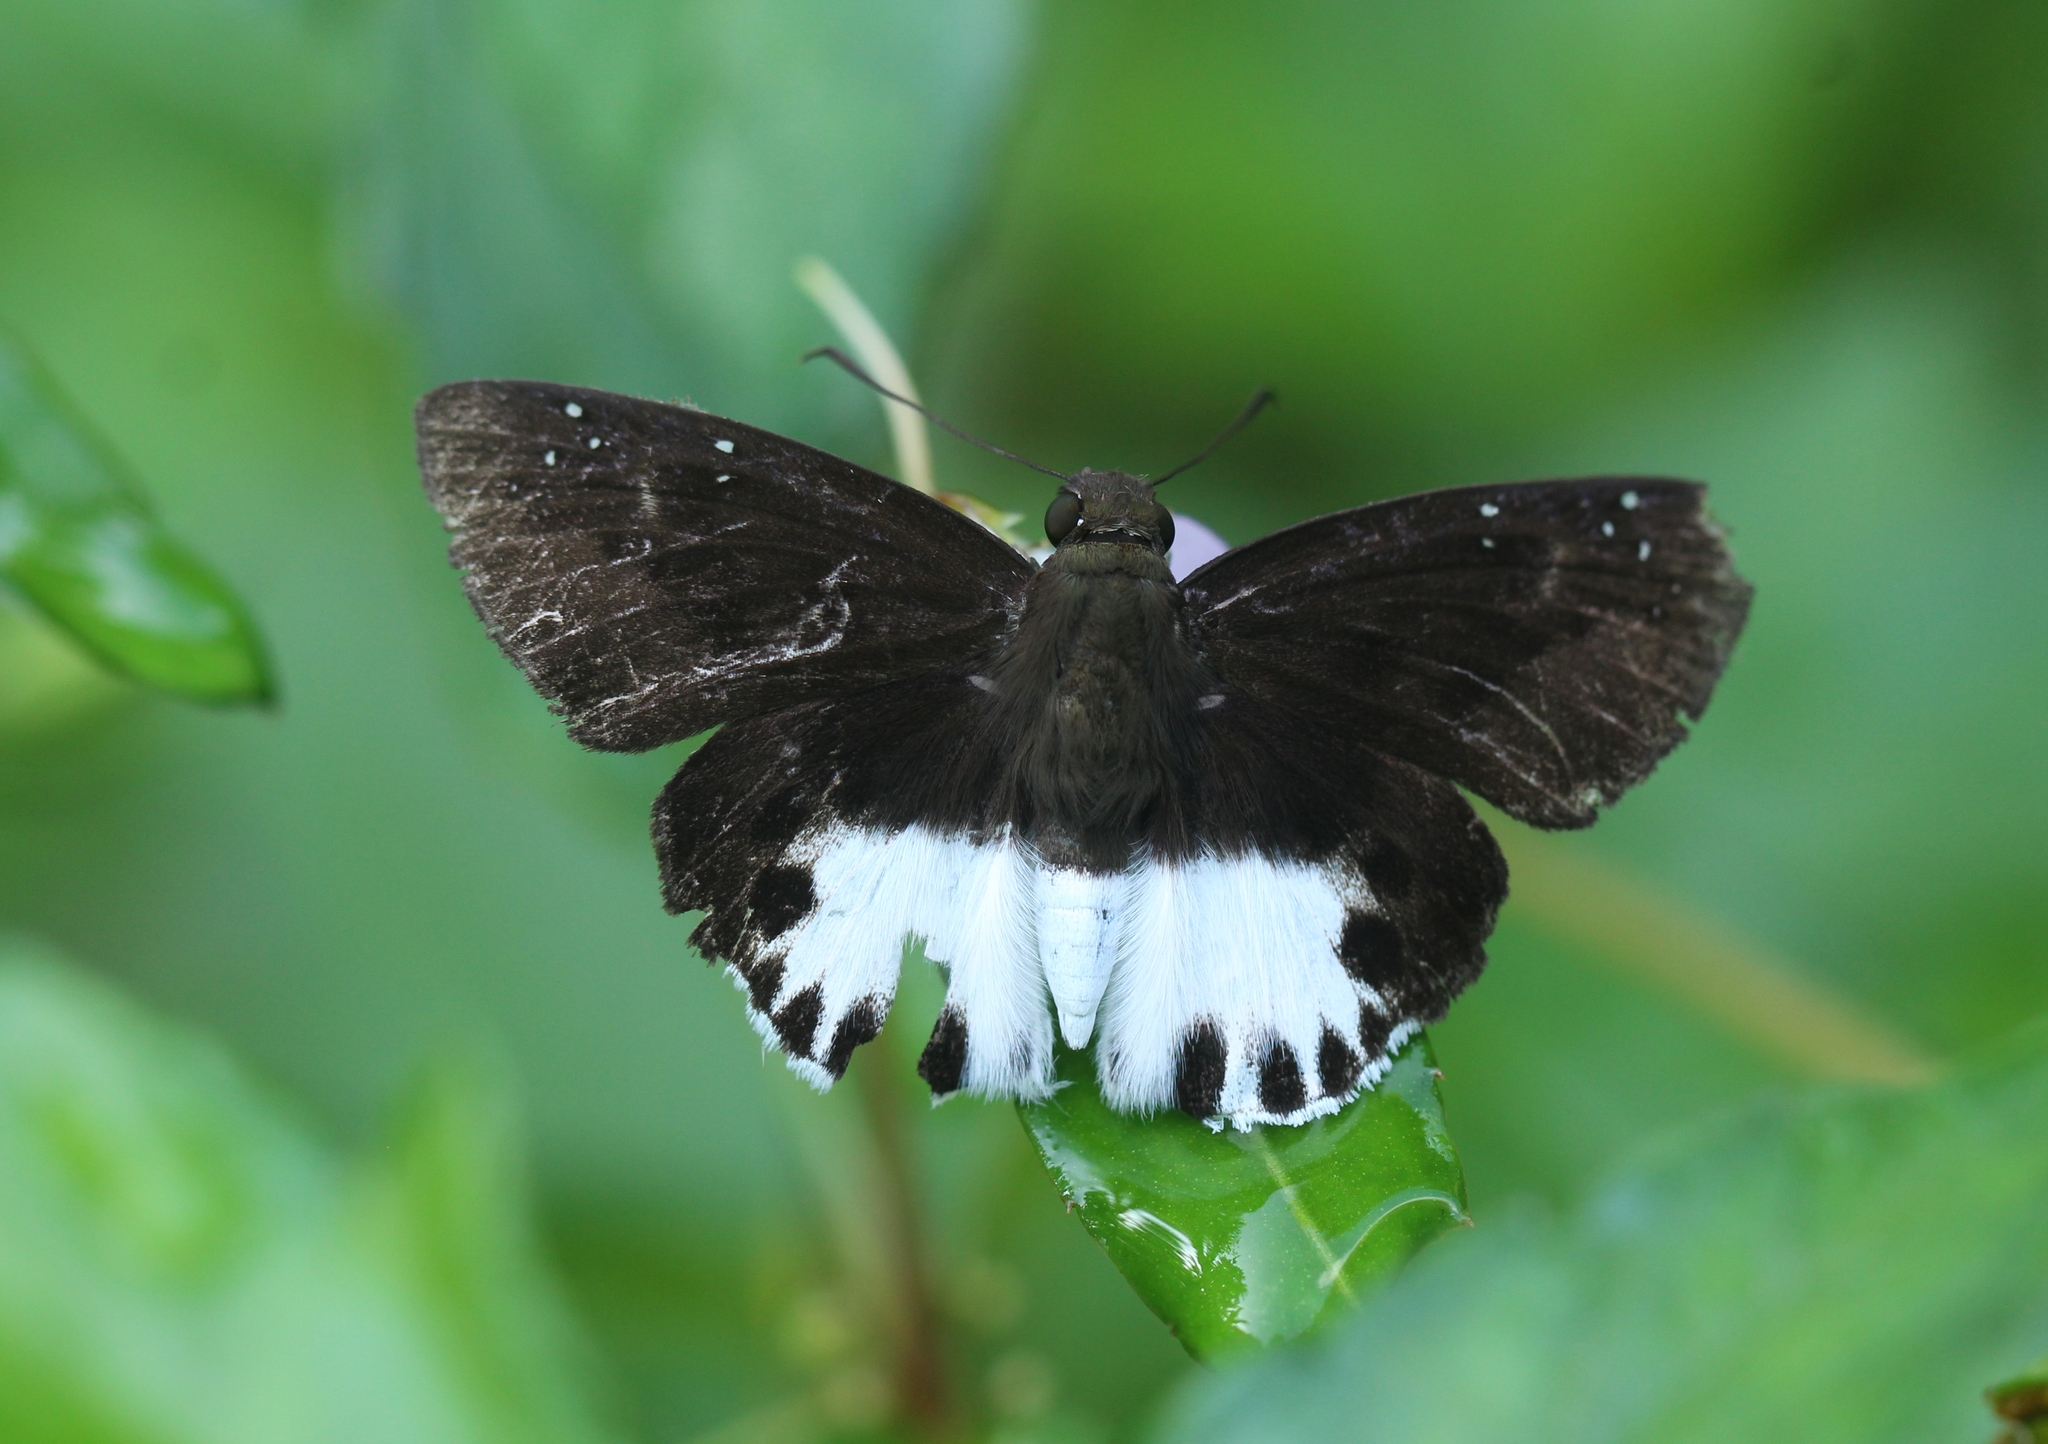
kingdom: Animalia
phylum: Arthropoda
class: Insecta
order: Lepidoptera
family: Hesperiidae
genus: Tagiades
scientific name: Tagiades litigiosa
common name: Water snow flat
